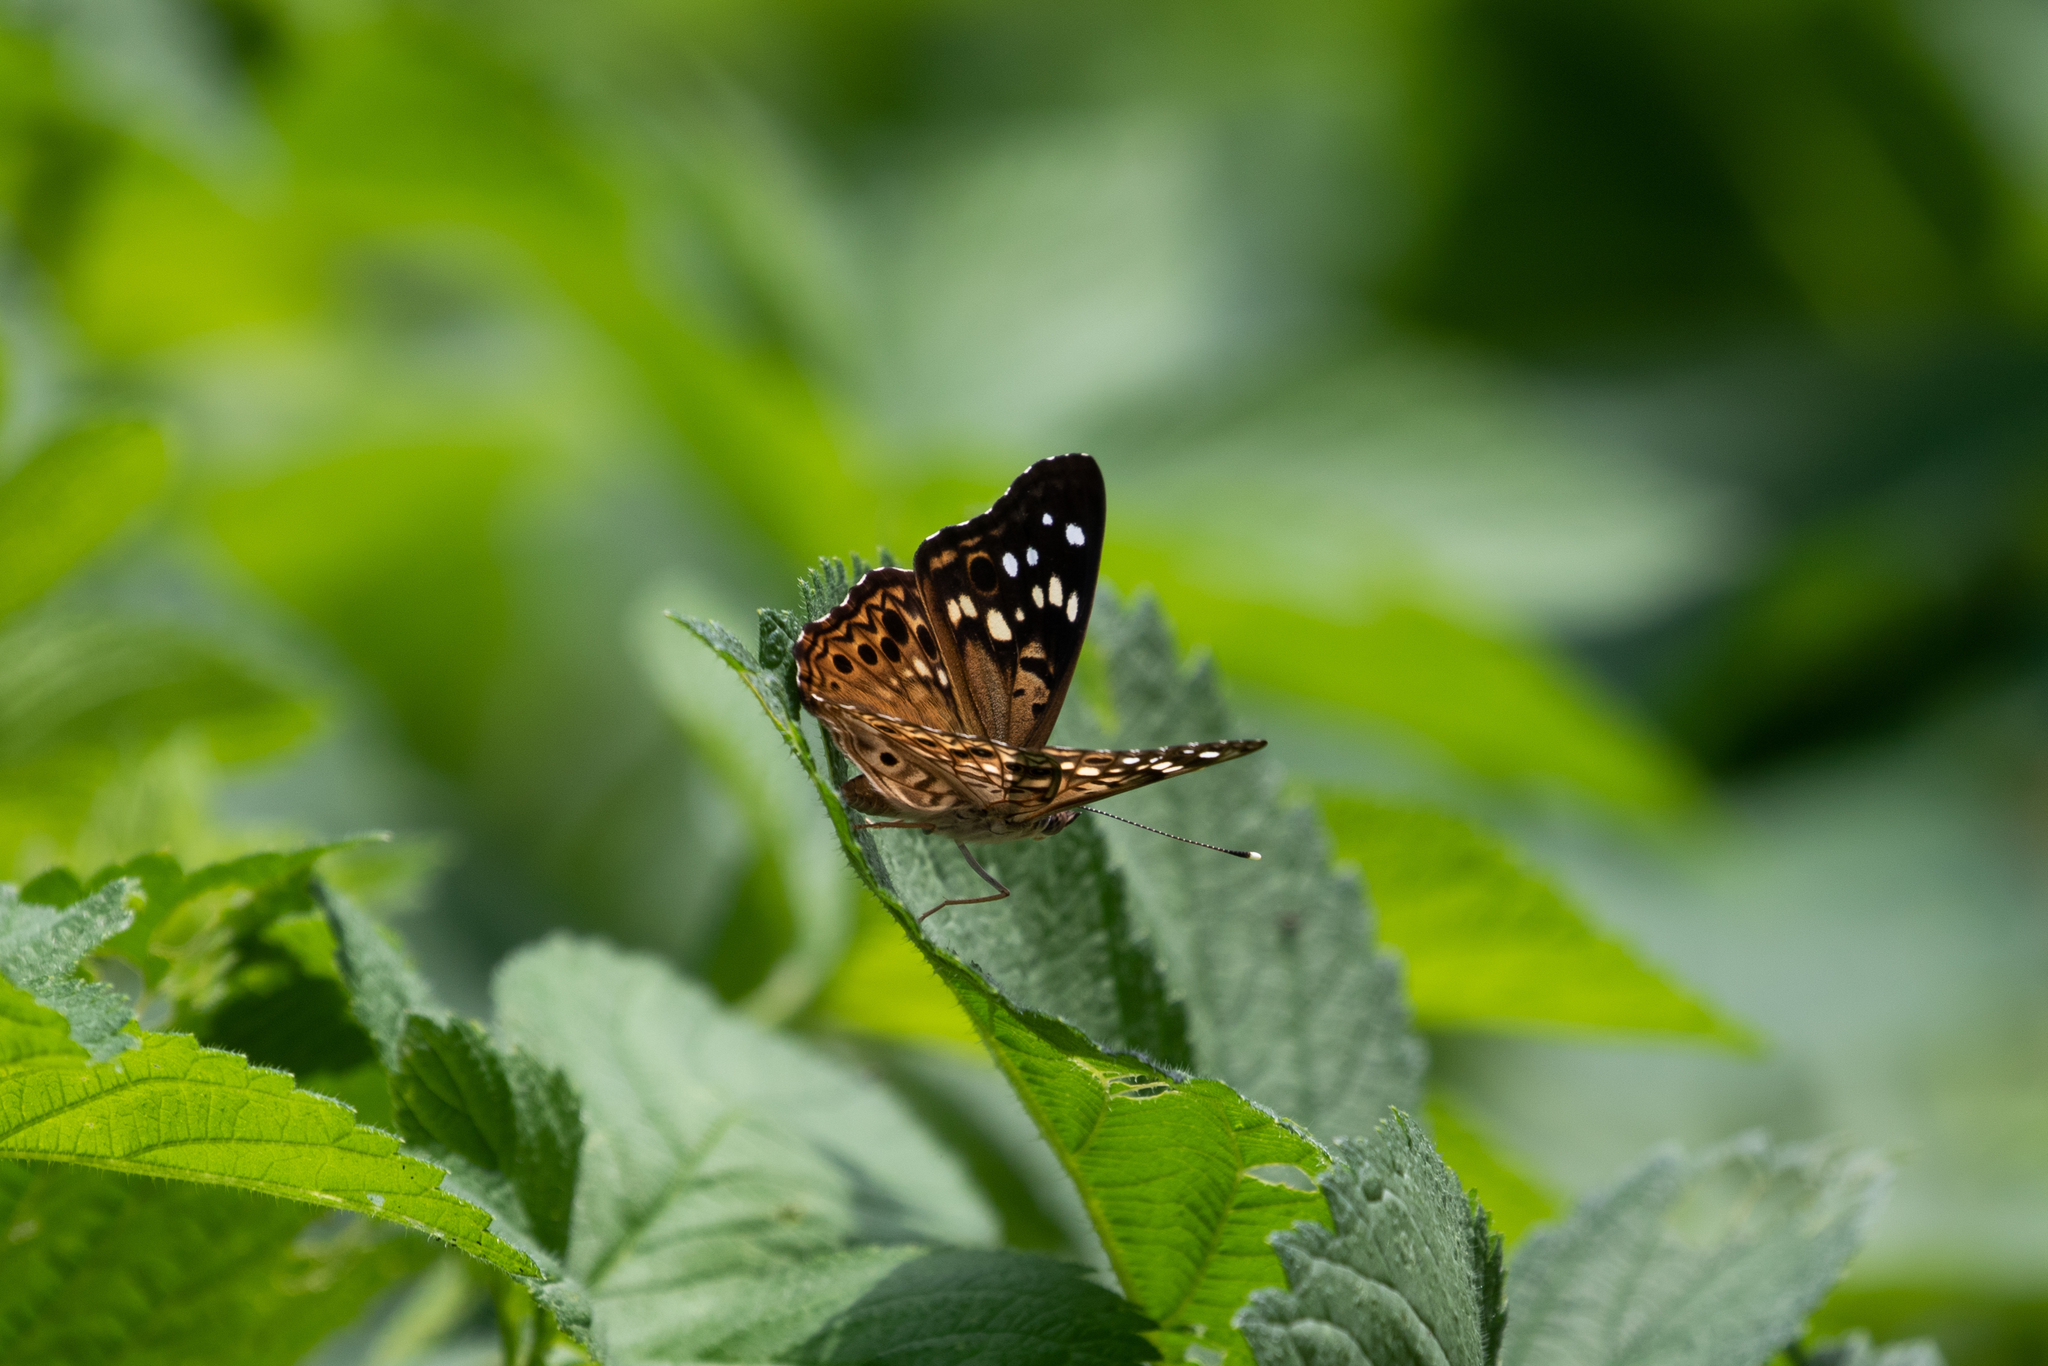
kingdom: Animalia
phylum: Arthropoda
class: Insecta
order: Lepidoptera
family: Nymphalidae
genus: Asterocampa
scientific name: Asterocampa celtis
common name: Hackberry emperor
